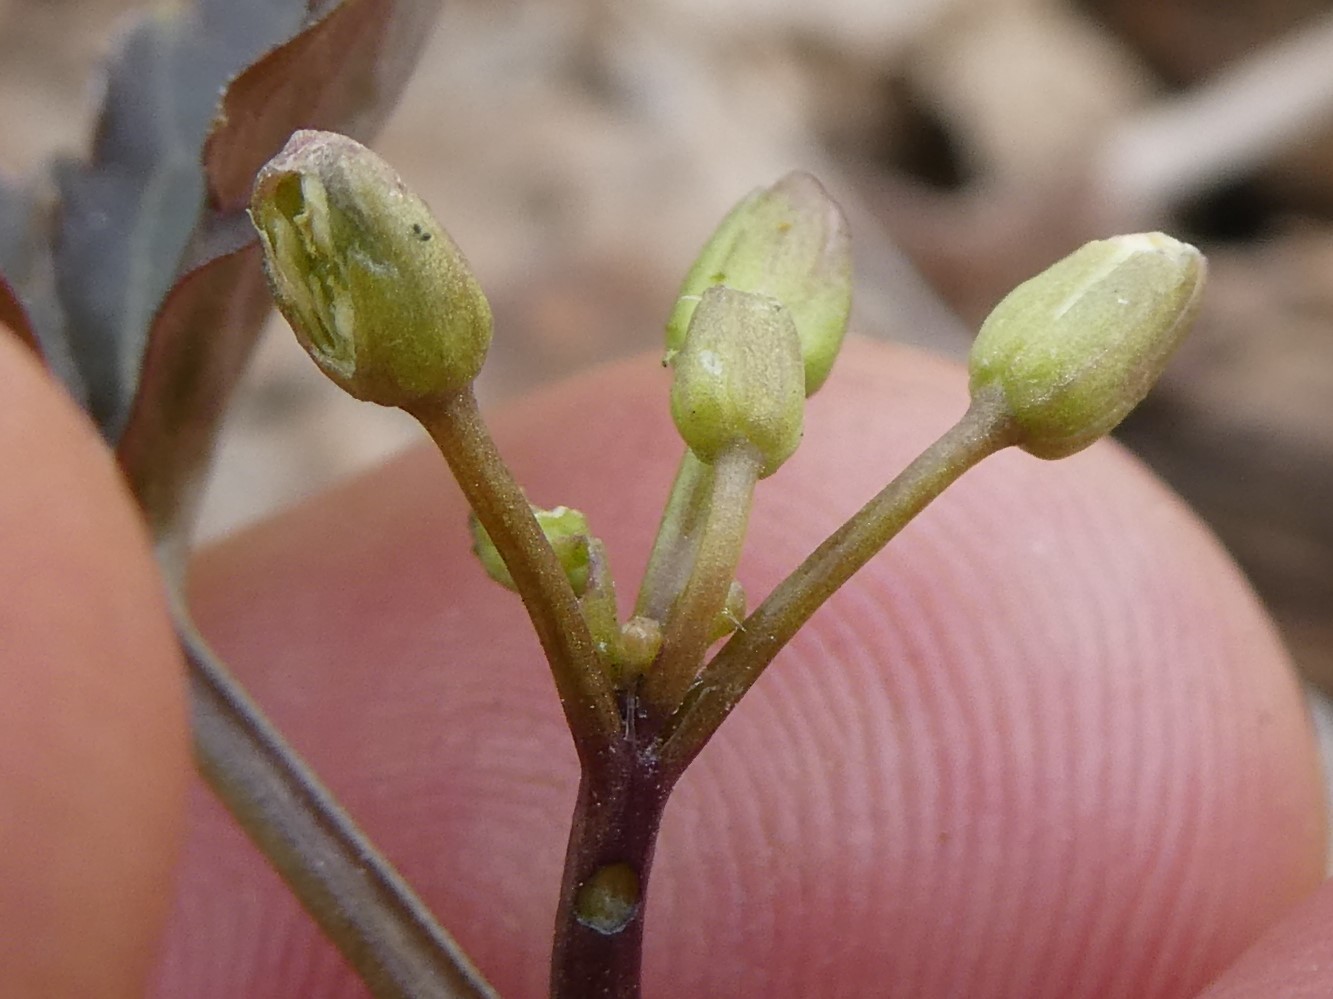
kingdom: Plantae
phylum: Tracheophyta
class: Magnoliopsida
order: Brassicales
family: Brassicaceae
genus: Cardamine
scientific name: Cardamine diphylla
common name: Broad-leaved toothwort
